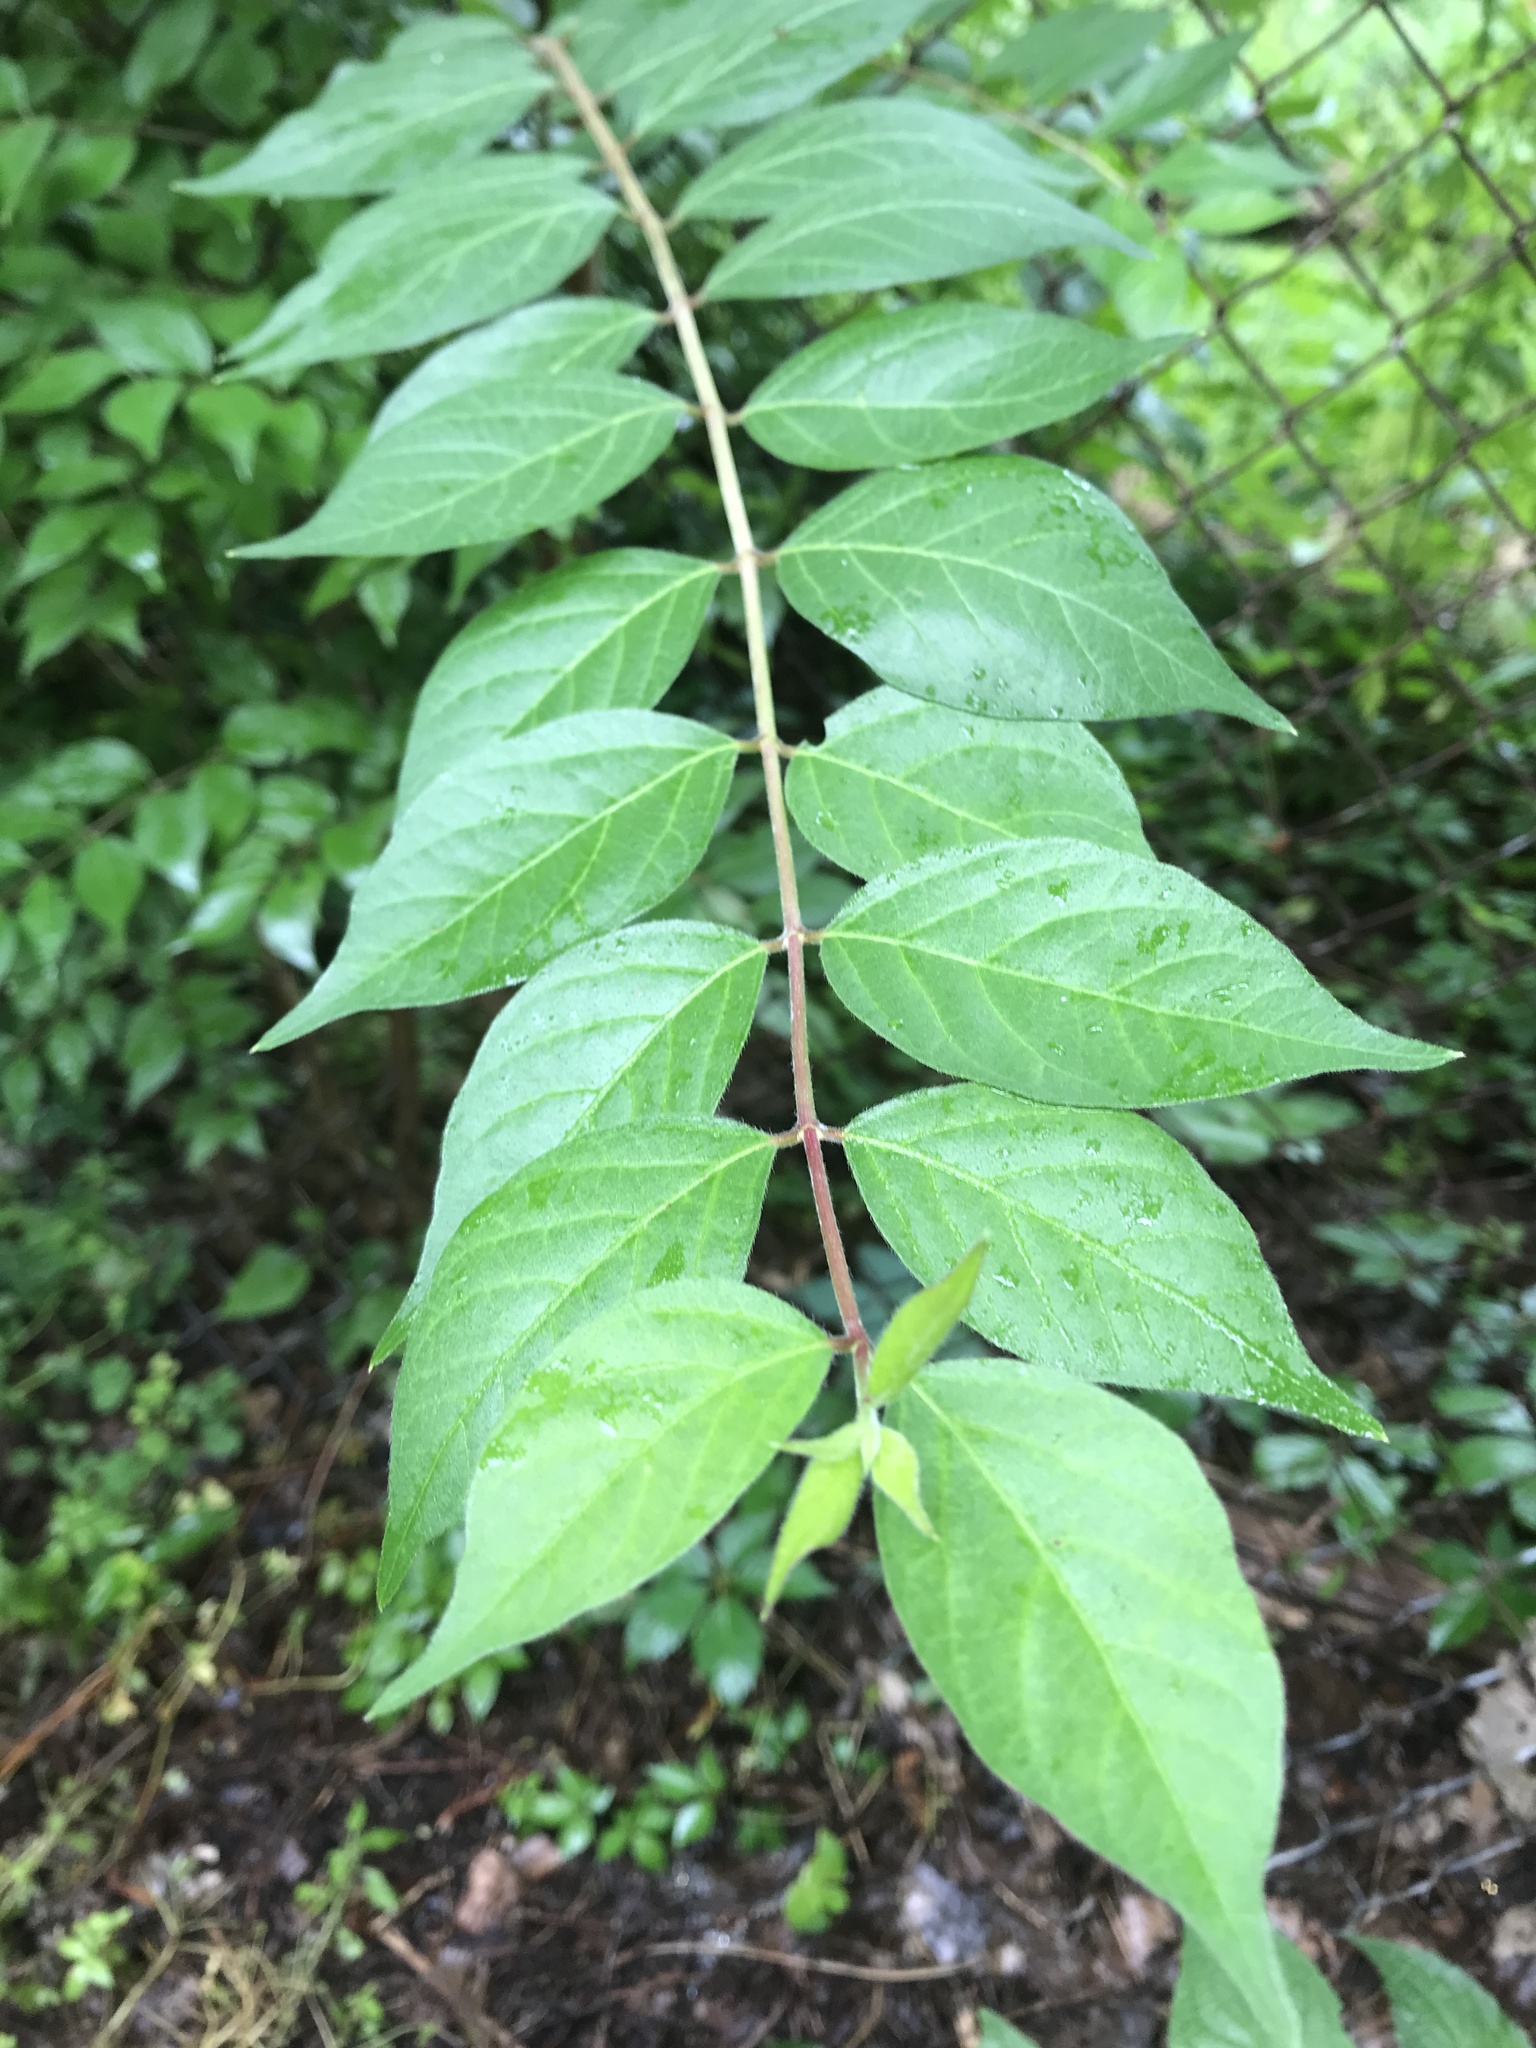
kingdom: Plantae
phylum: Tracheophyta
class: Magnoliopsida
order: Dipsacales
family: Caprifoliaceae
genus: Lonicera
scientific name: Lonicera maackii
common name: Amur honeysuckle
